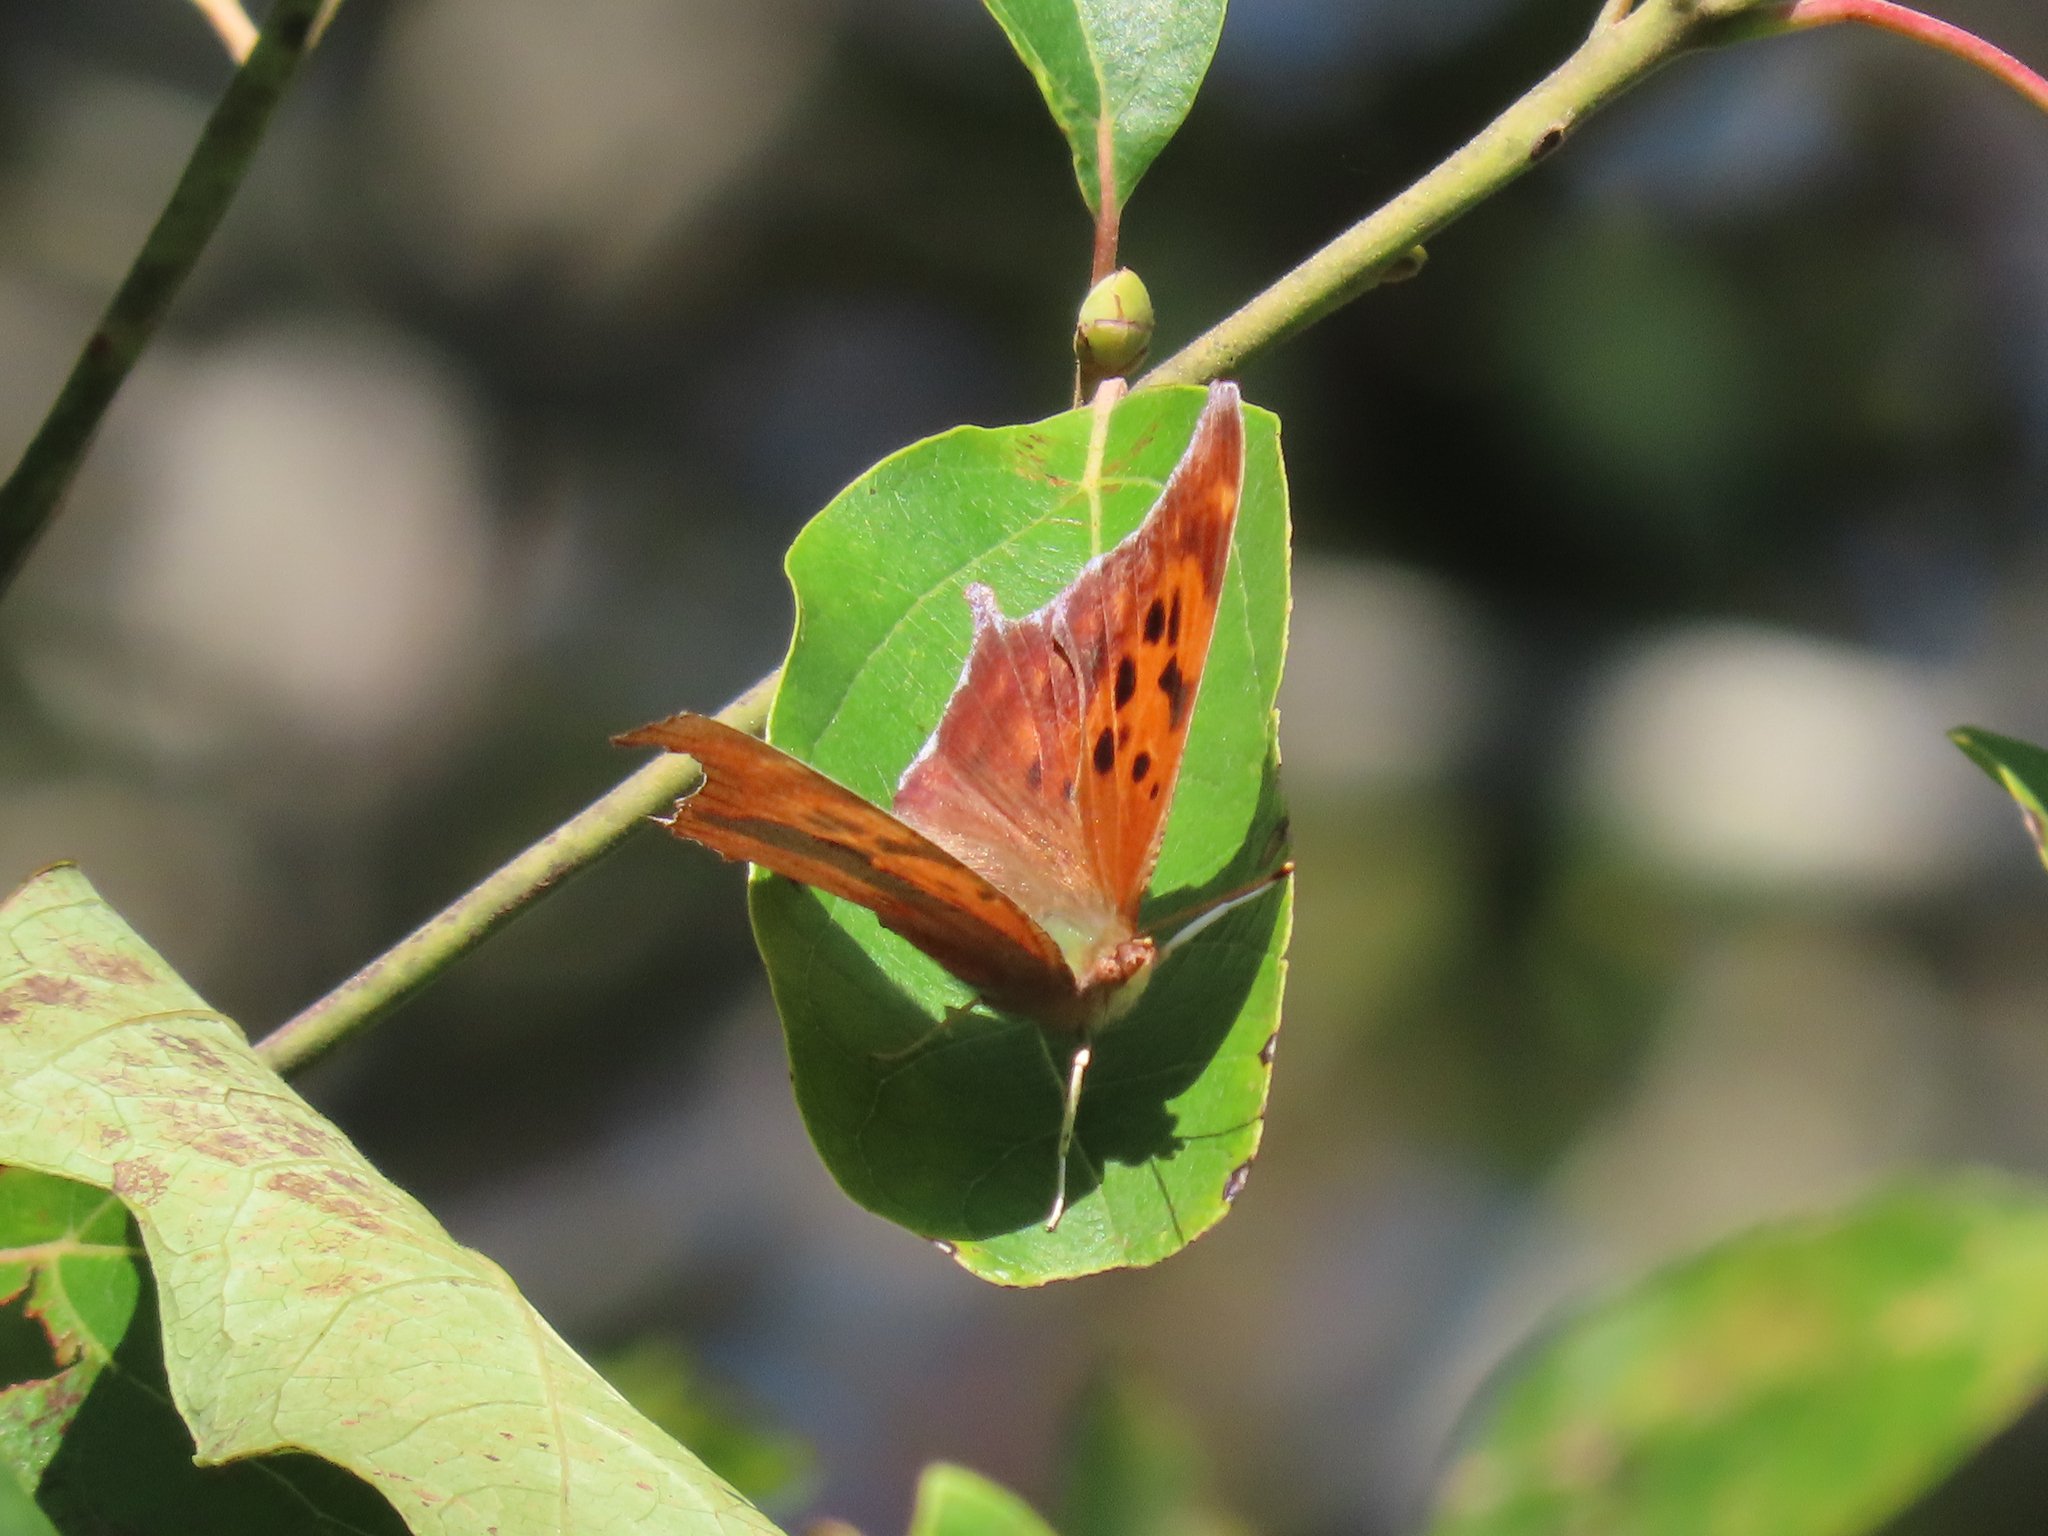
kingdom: Animalia
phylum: Arthropoda
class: Insecta
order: Lepidoptera
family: Nymphalidae
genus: Polygonia
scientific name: Polygonia interrogationis
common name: Question mark
